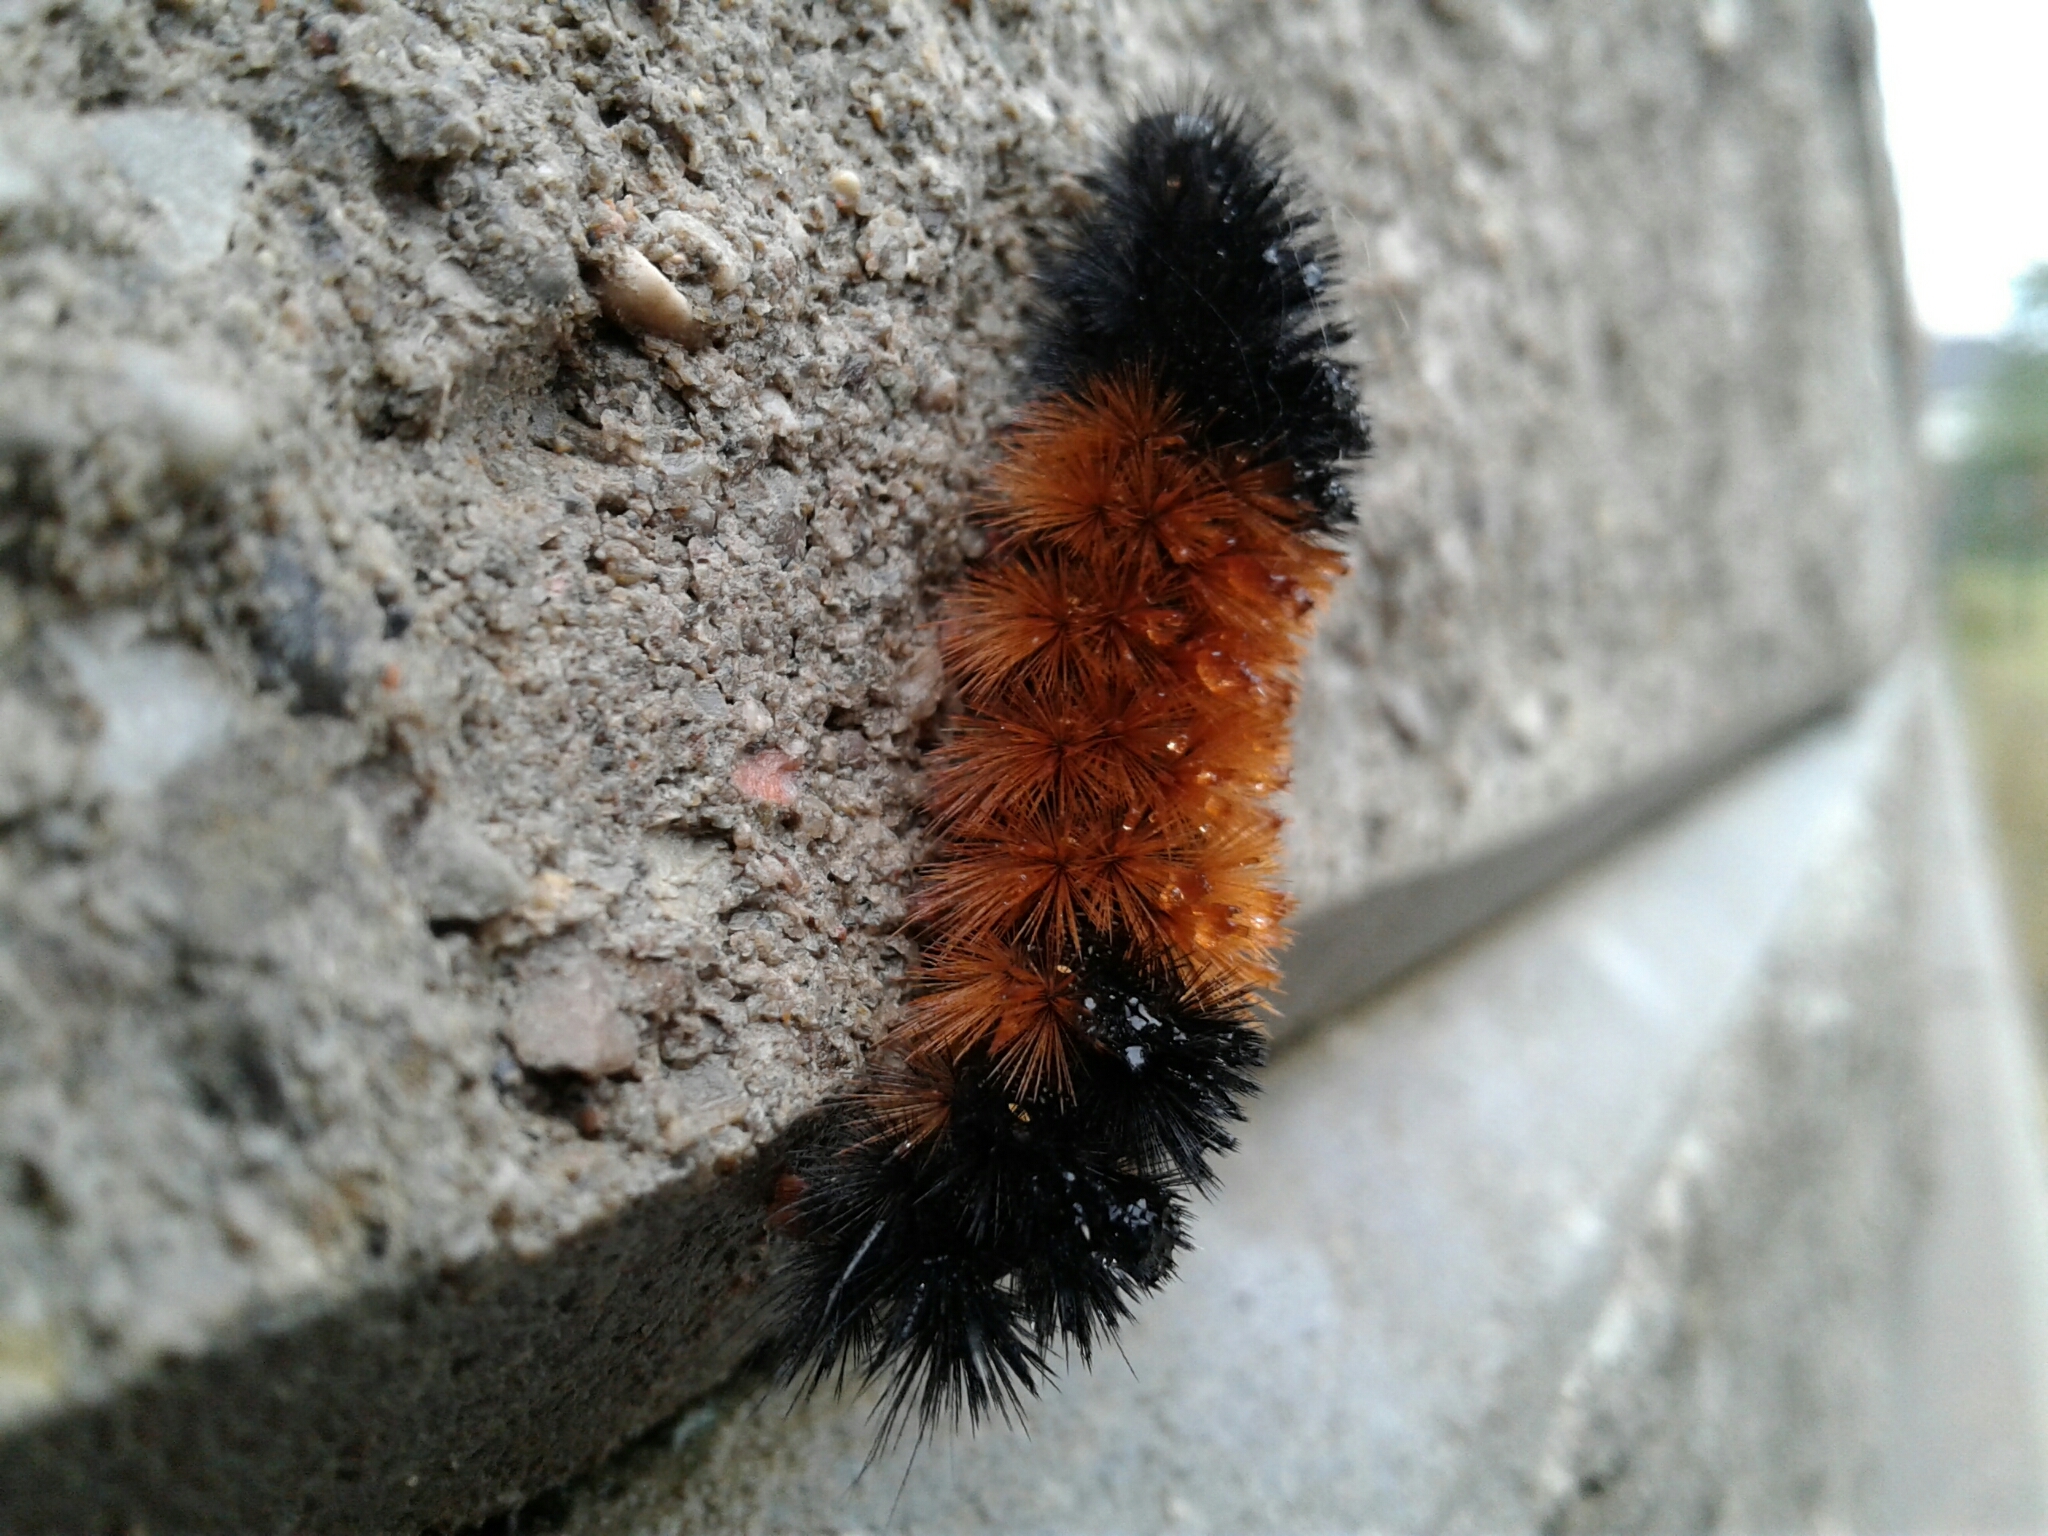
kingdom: Animalia
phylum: Arthropoda
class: Insecta
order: Lepidoptera
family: Erebidae
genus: Pyrrharctia
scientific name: Pyrrharctia isabella
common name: Isabella tiger moth
